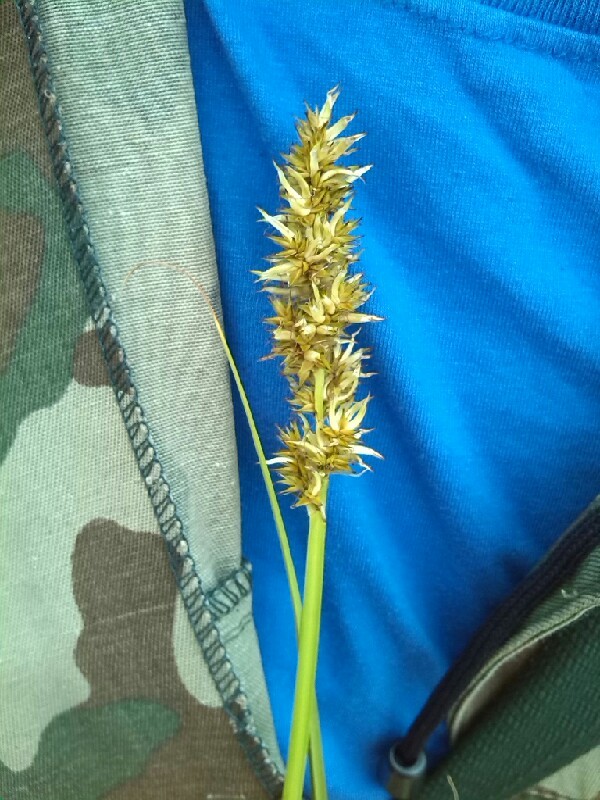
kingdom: Plantae
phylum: Tracheophyta
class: Liliopsida
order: Poales
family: Cyperaceae
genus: Carex
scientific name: Carex vulpina
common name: True fox-sedge
